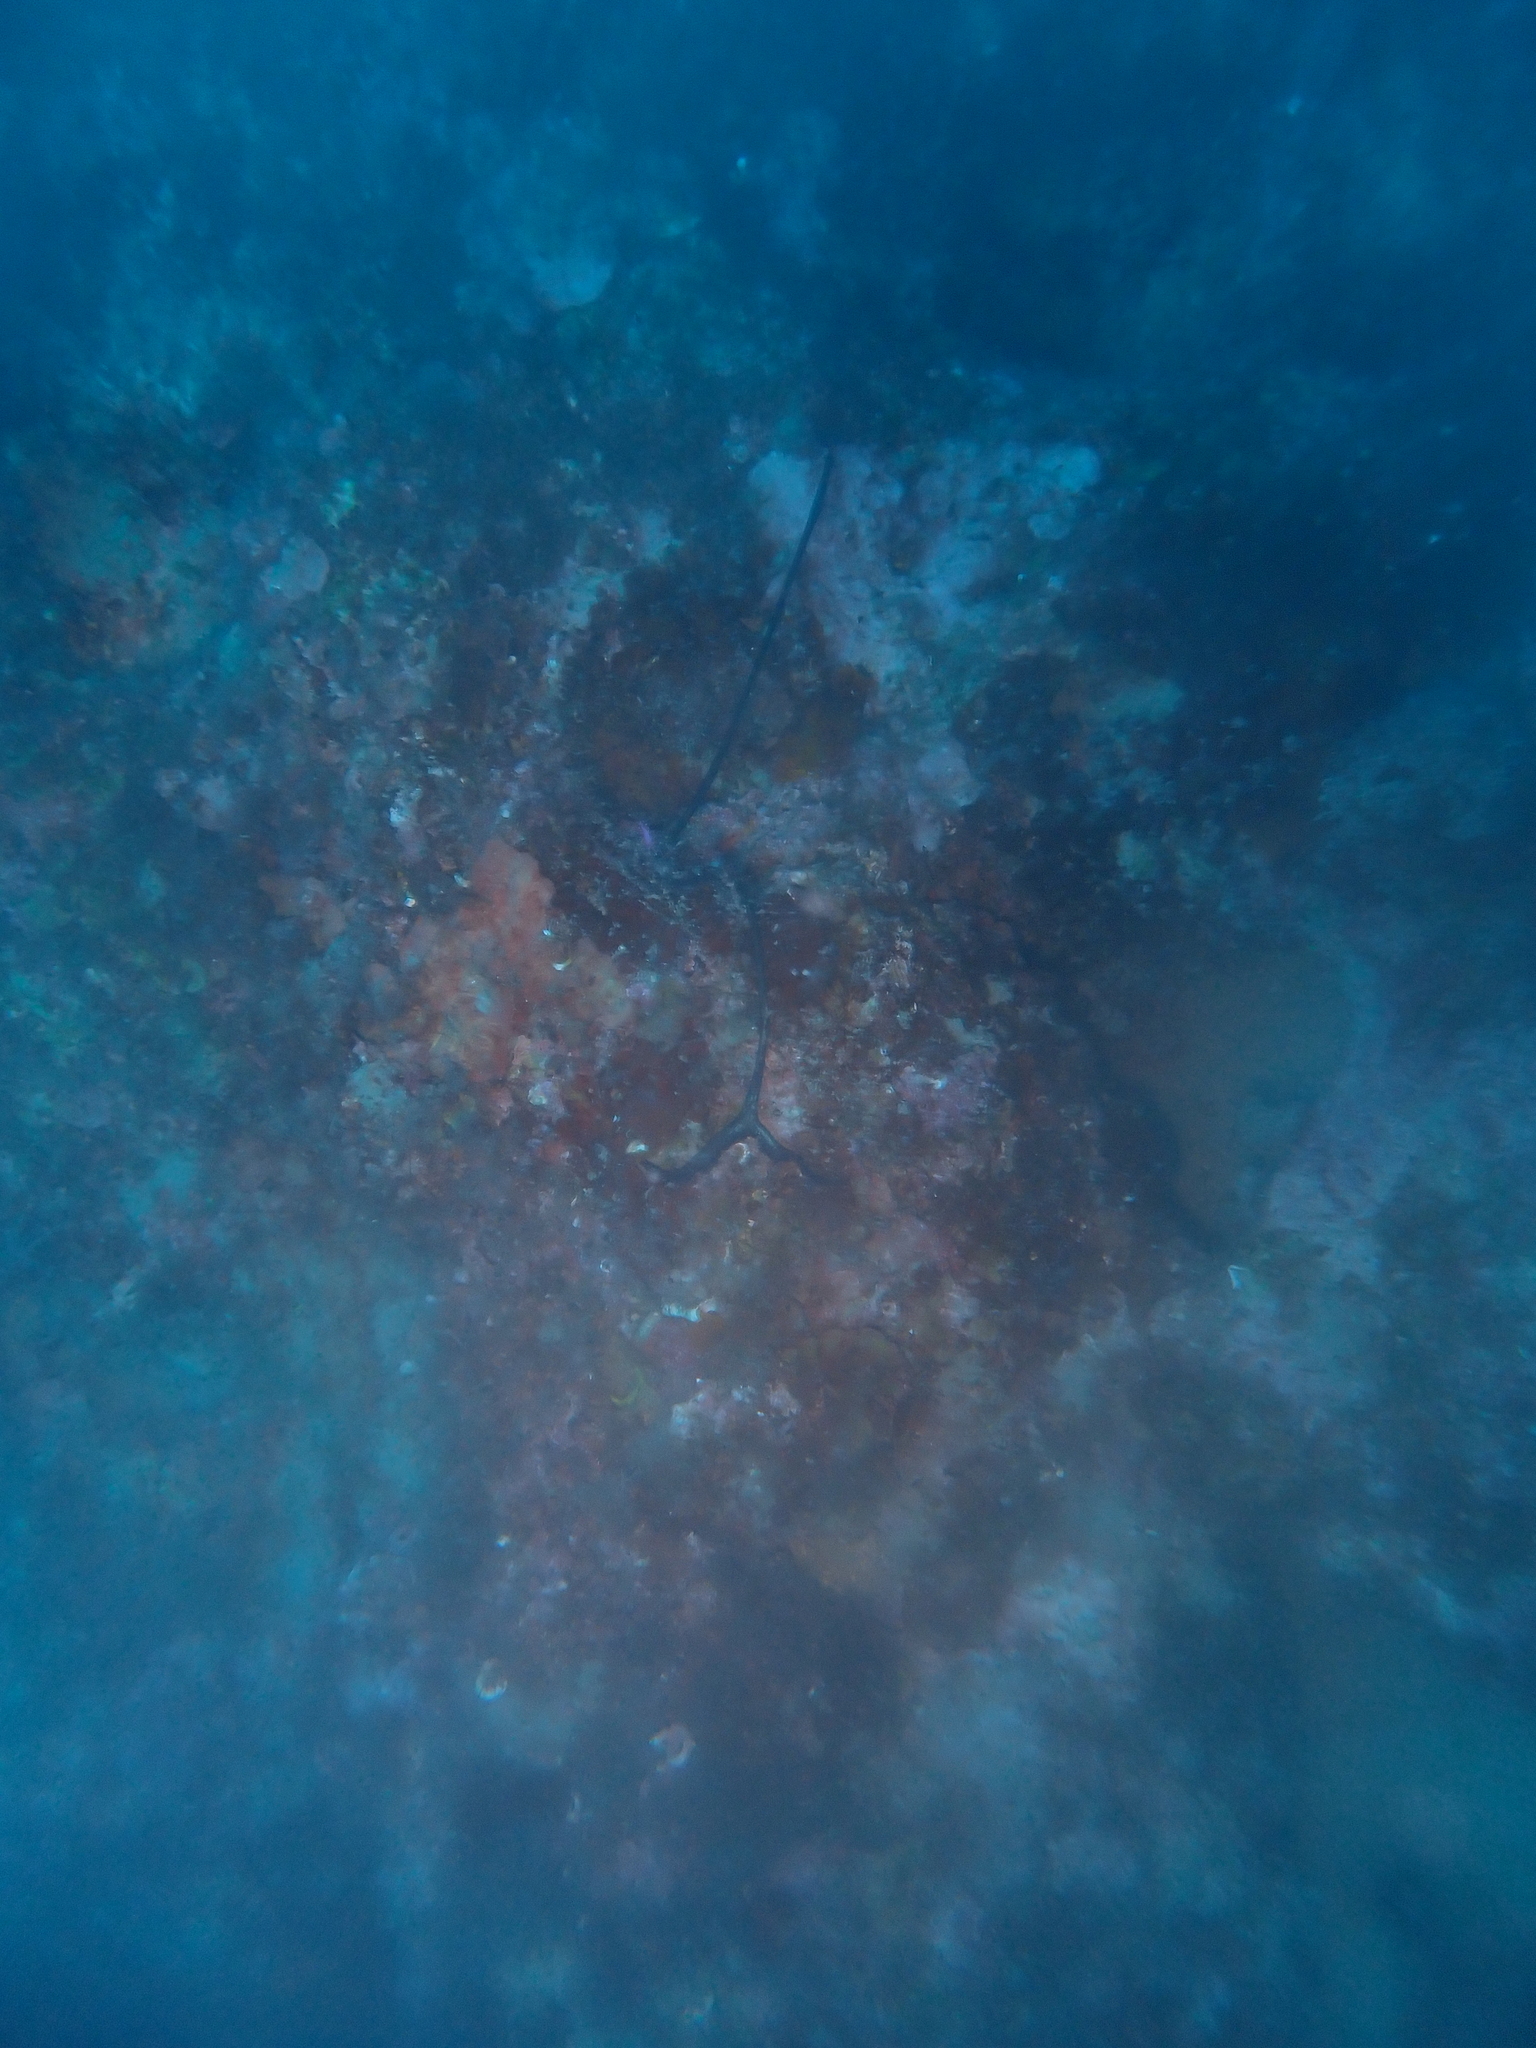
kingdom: Animalia
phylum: Annelida
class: Polychaeta
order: Echiuroidea
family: Bonelliidae
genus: Bonellia
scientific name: Bonellia viridis
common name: Green spoon worm
